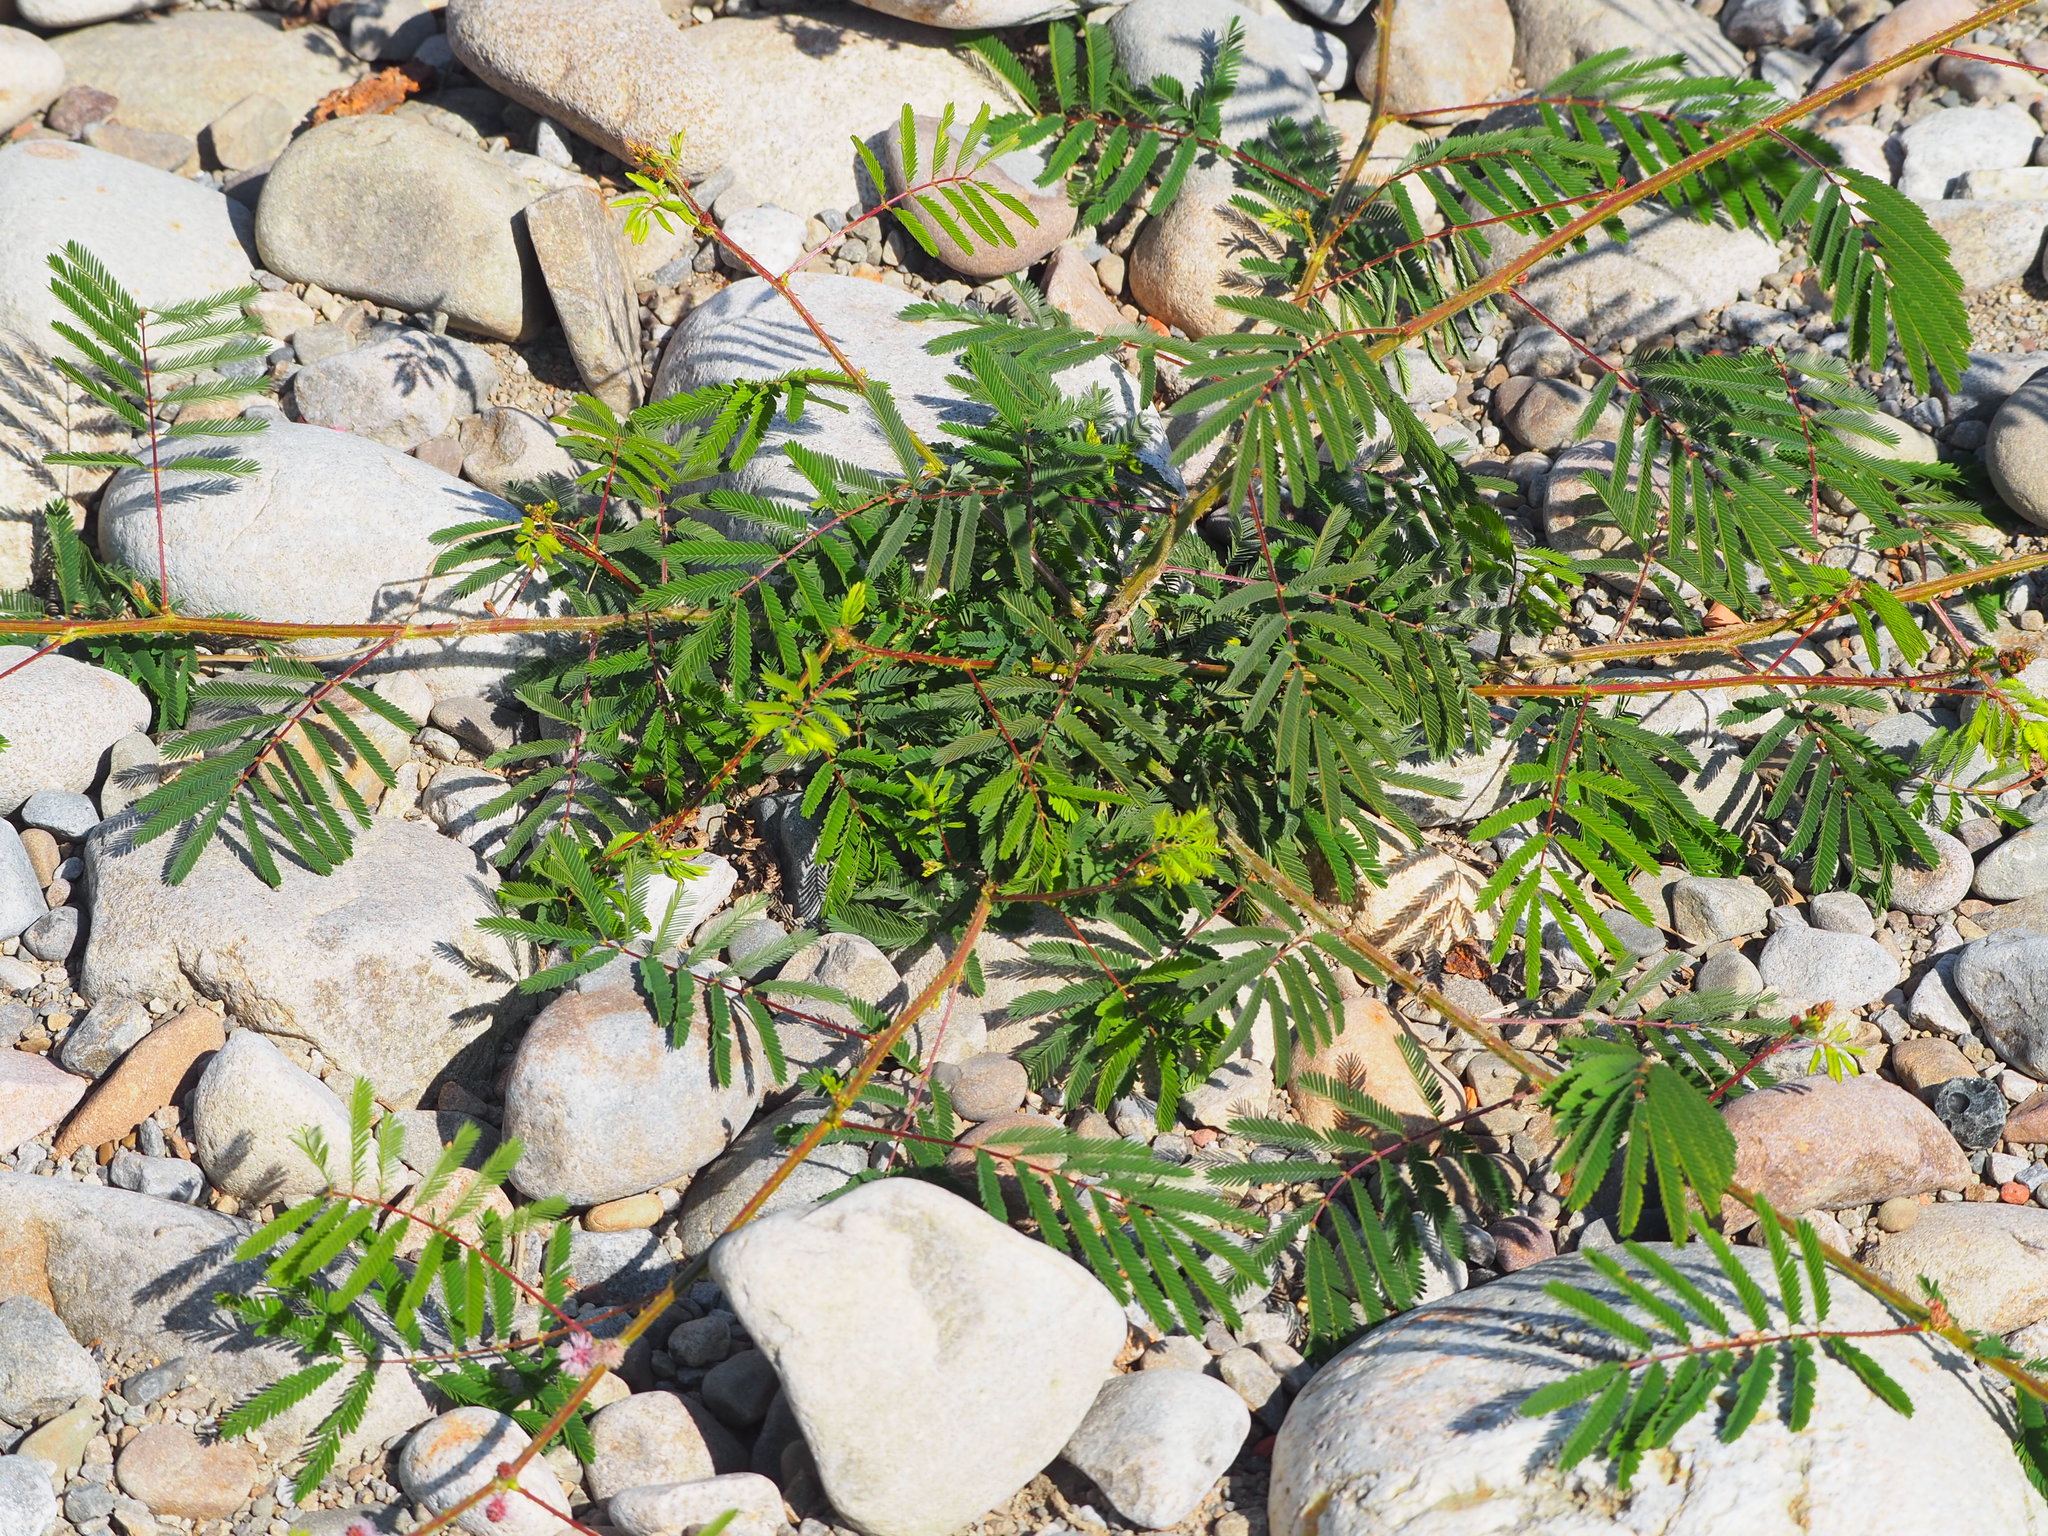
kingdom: Plantae
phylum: Tracheophyta
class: Magnoliopsida
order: Fabales
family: Fabaceae
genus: Mimosa
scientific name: Mimosa diplotricha
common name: Giant sensitive-plant
